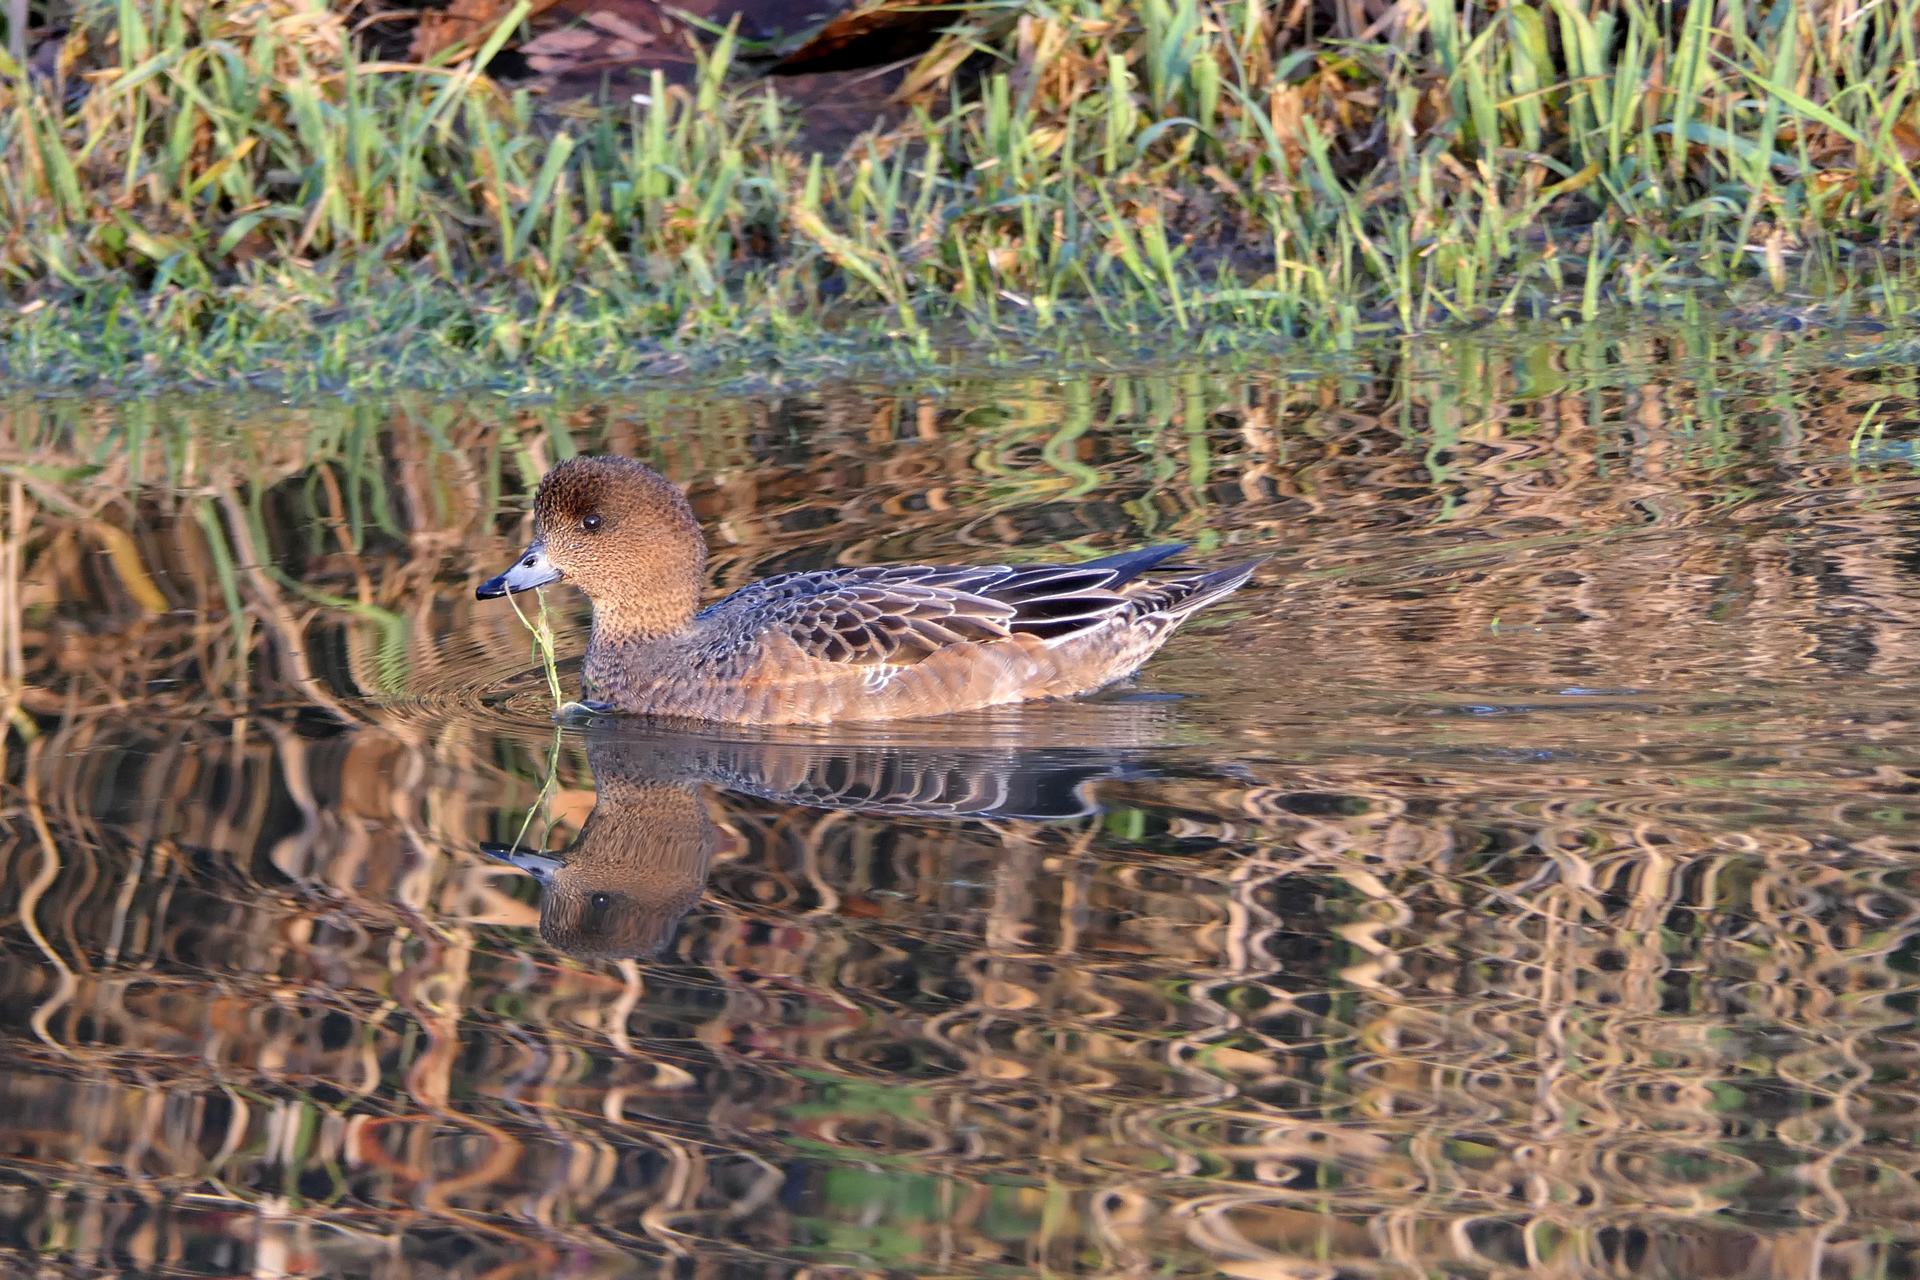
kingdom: Animalia
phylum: Chordata
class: Aves
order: Anseriformes
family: Anatidae
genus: Mareca
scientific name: Mareca penelope
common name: Eurasian wigeon
